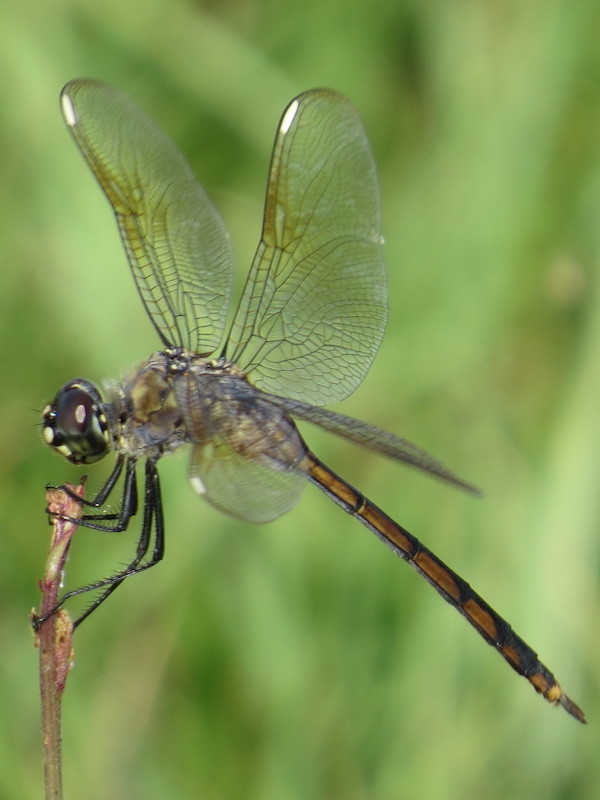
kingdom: Animalia
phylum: Arthropoda
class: Insecta
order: Odonata
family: Libellulidae
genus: Brachymesia
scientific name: Brachymesia gravida
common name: Four-spotted pennant
